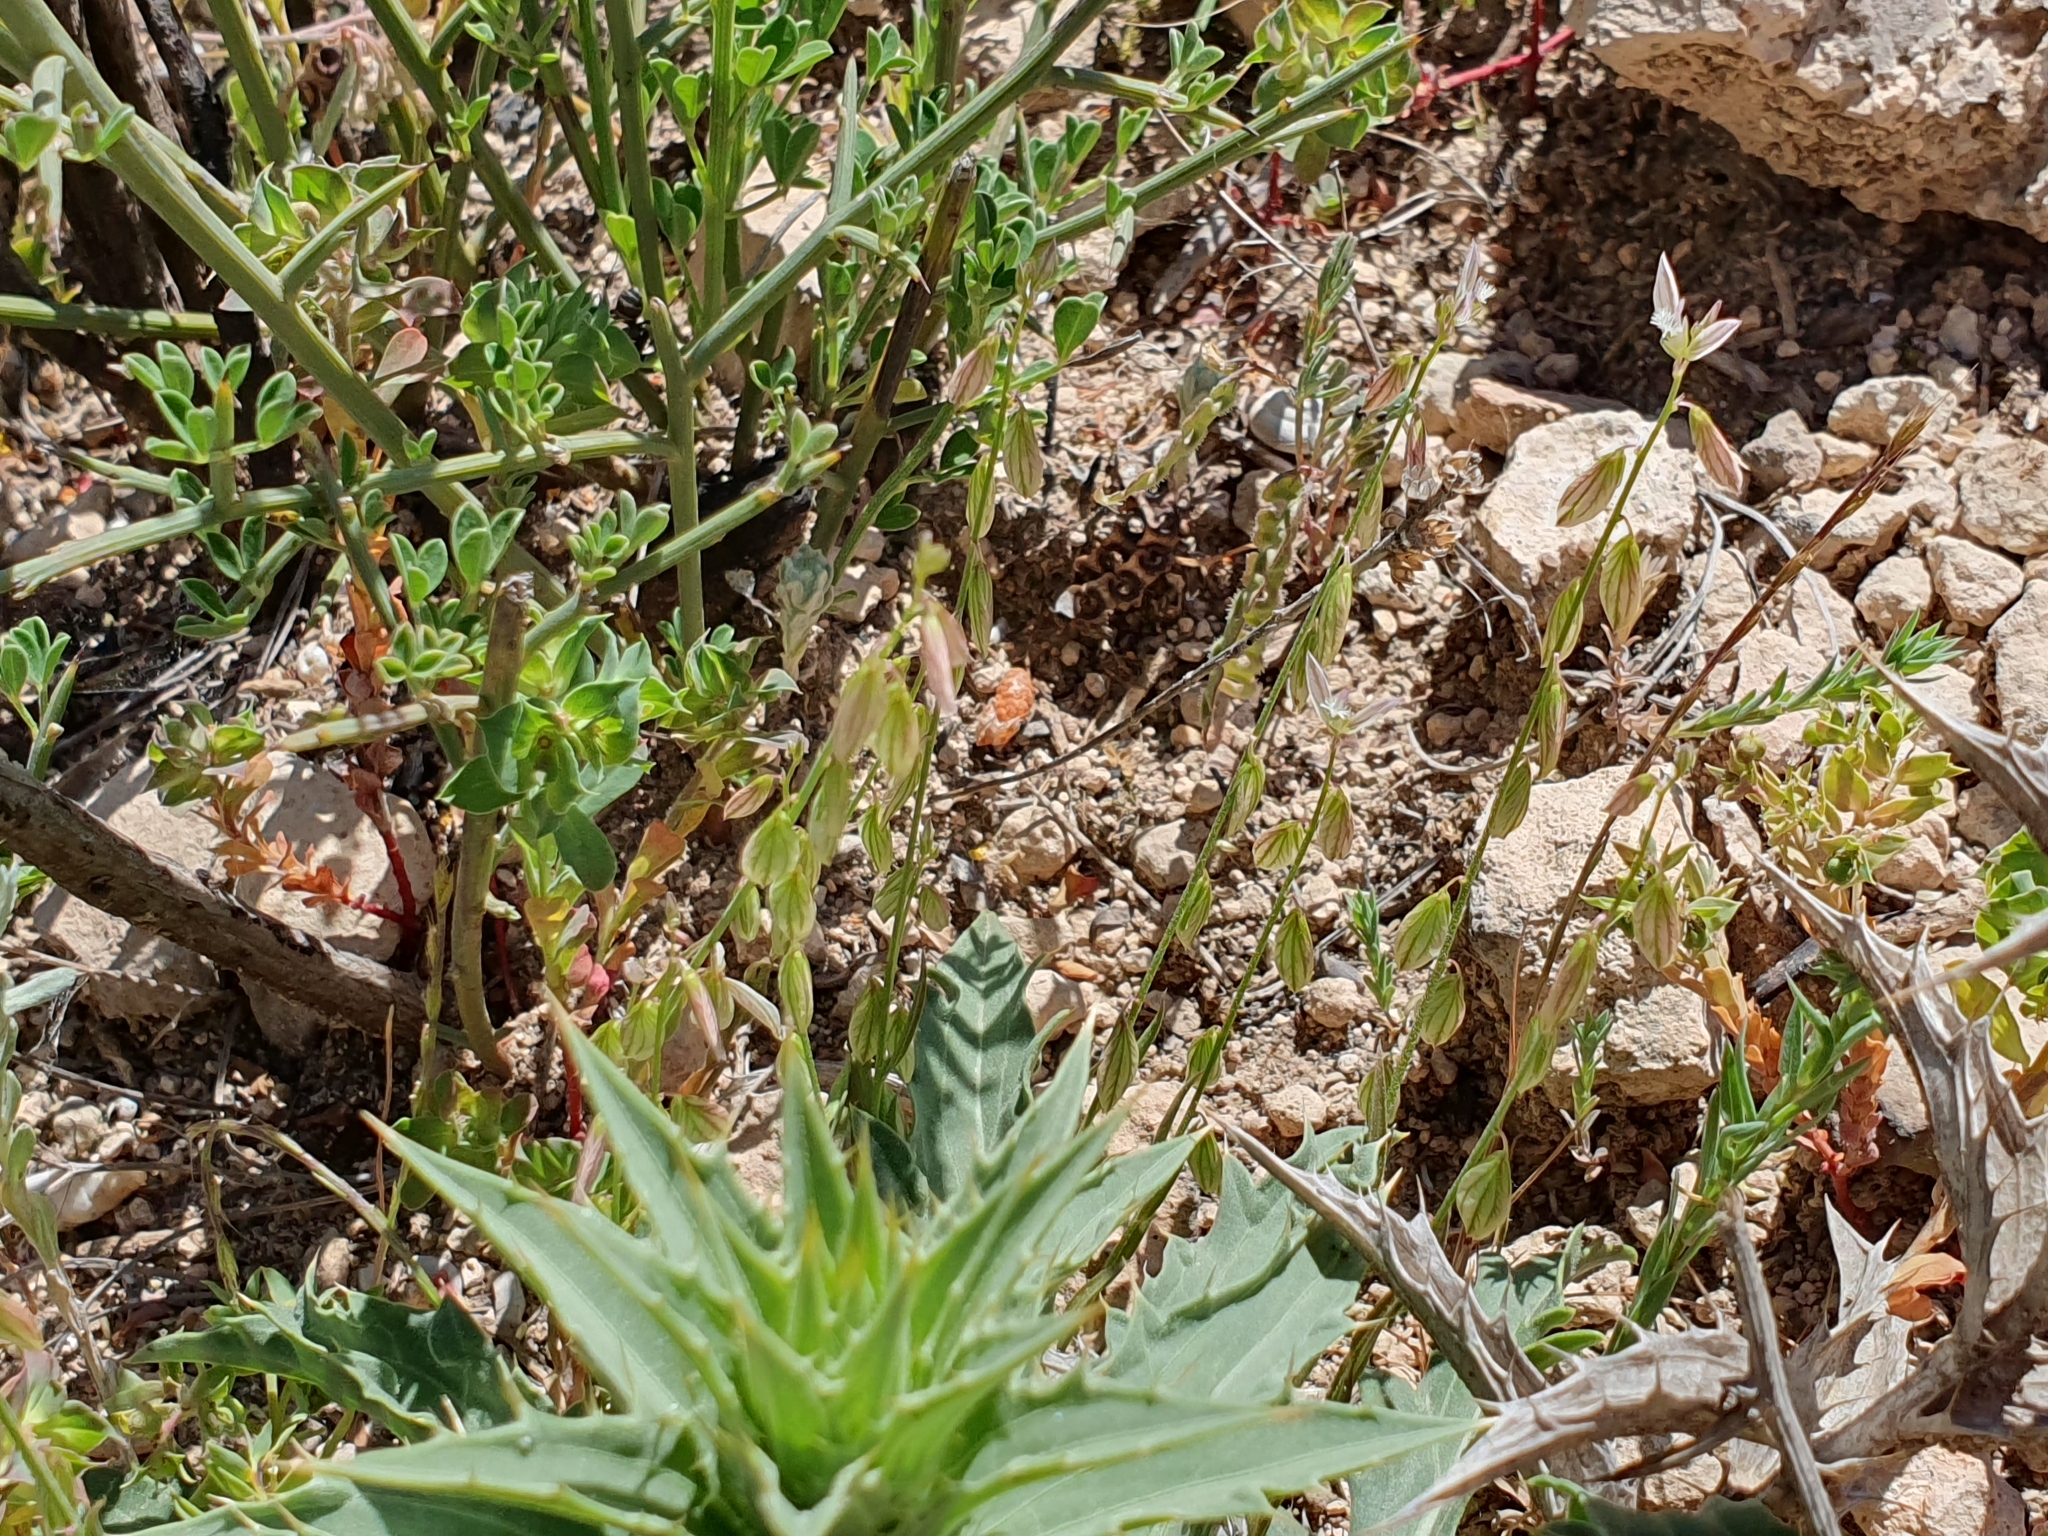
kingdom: Plantae
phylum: Tracheophyta
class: Magnoliopsida
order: Fabales
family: Polygalaceae
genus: Polygala
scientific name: Polygala monspeliaca
